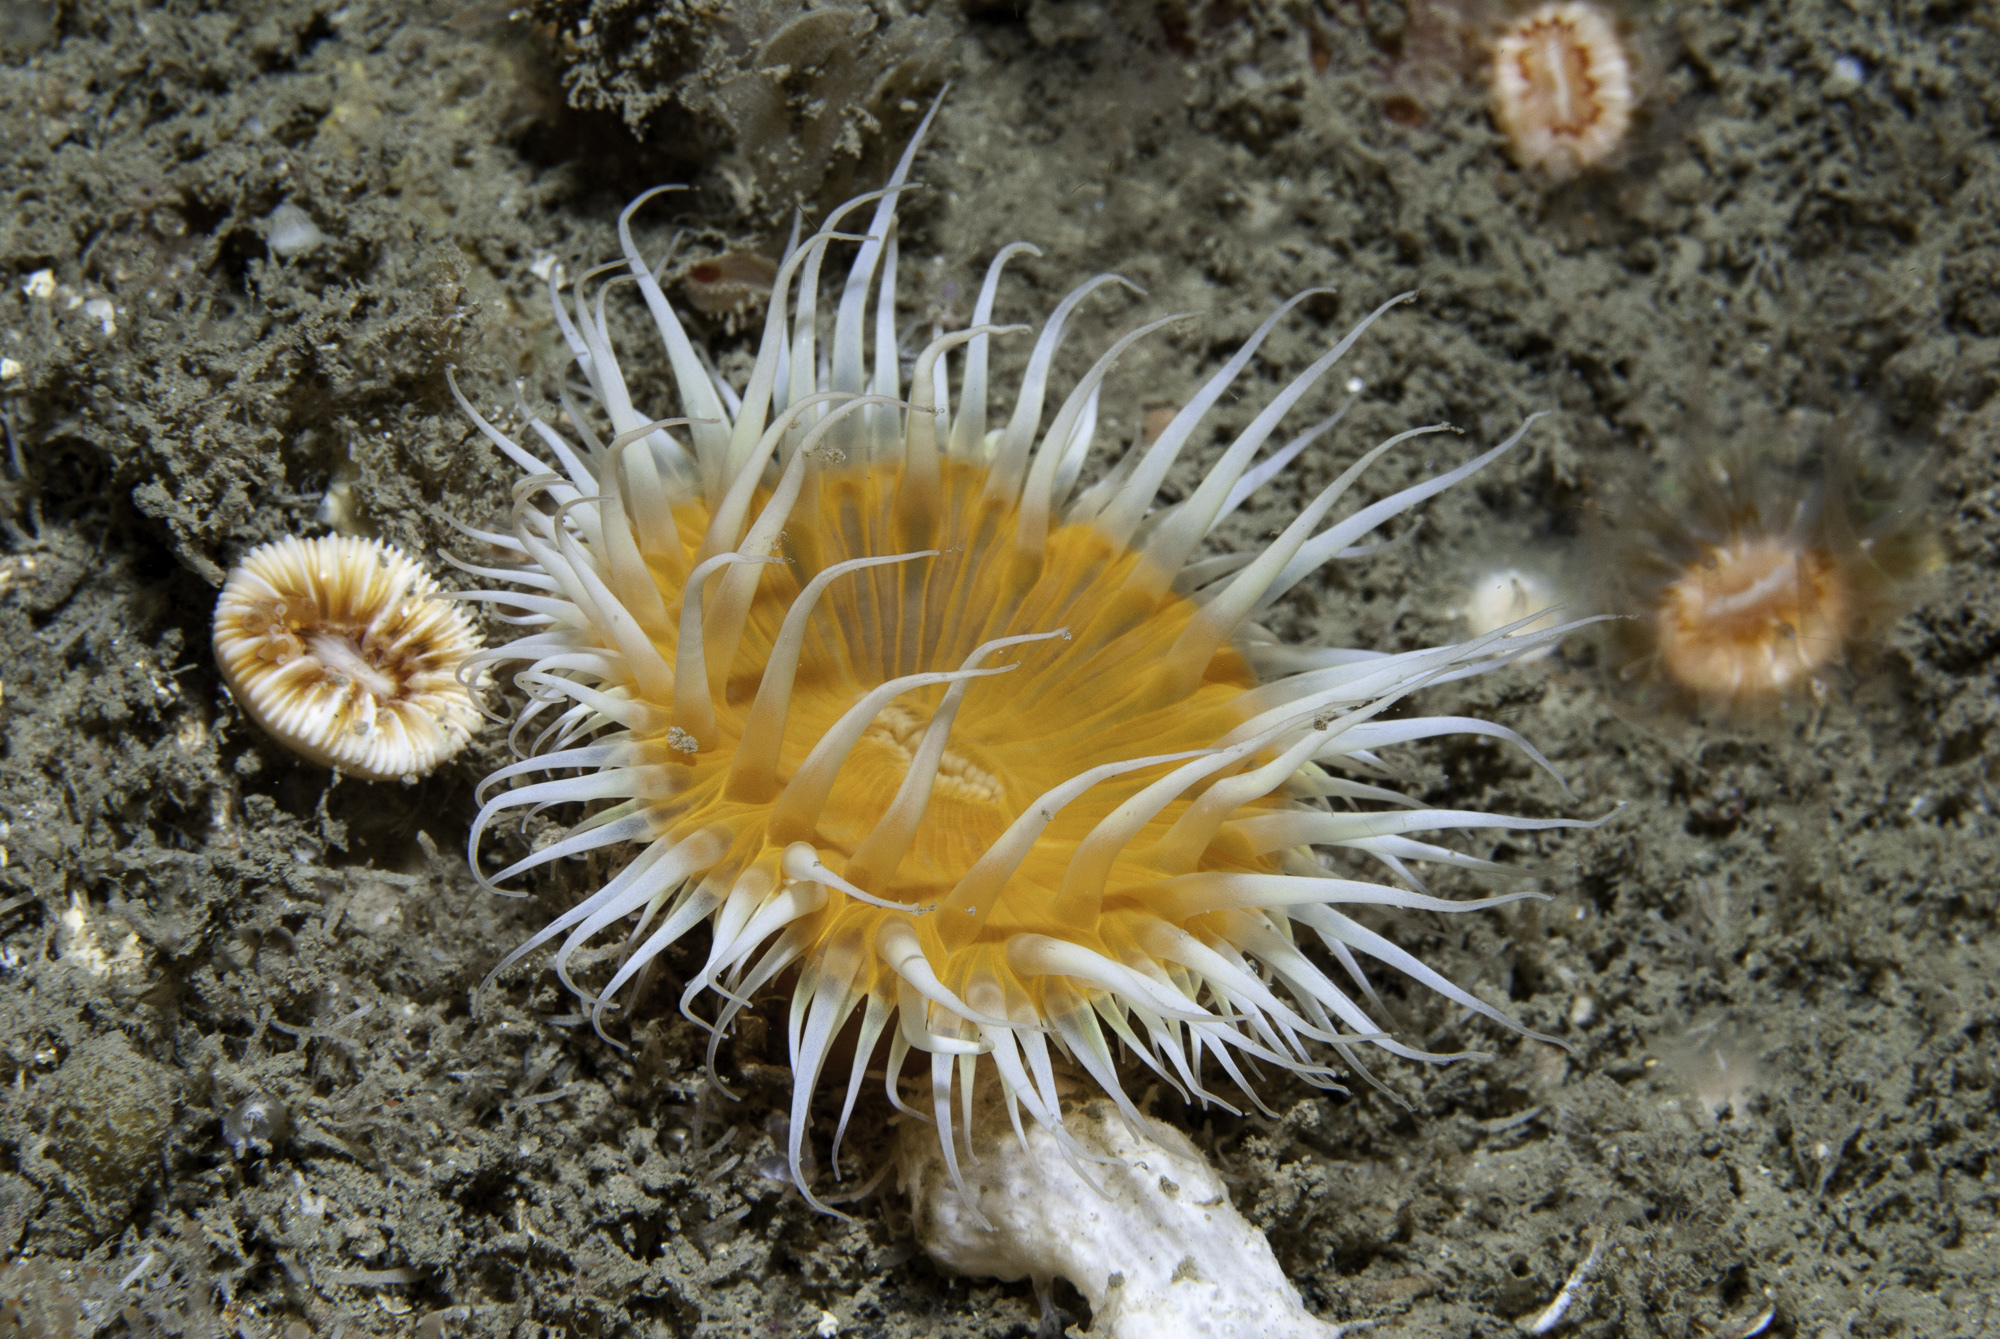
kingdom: Animalia
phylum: Cnidaria
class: Anthozoa
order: Actiniaria
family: Sagartiidae
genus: Cylista
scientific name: Cylista elegans
